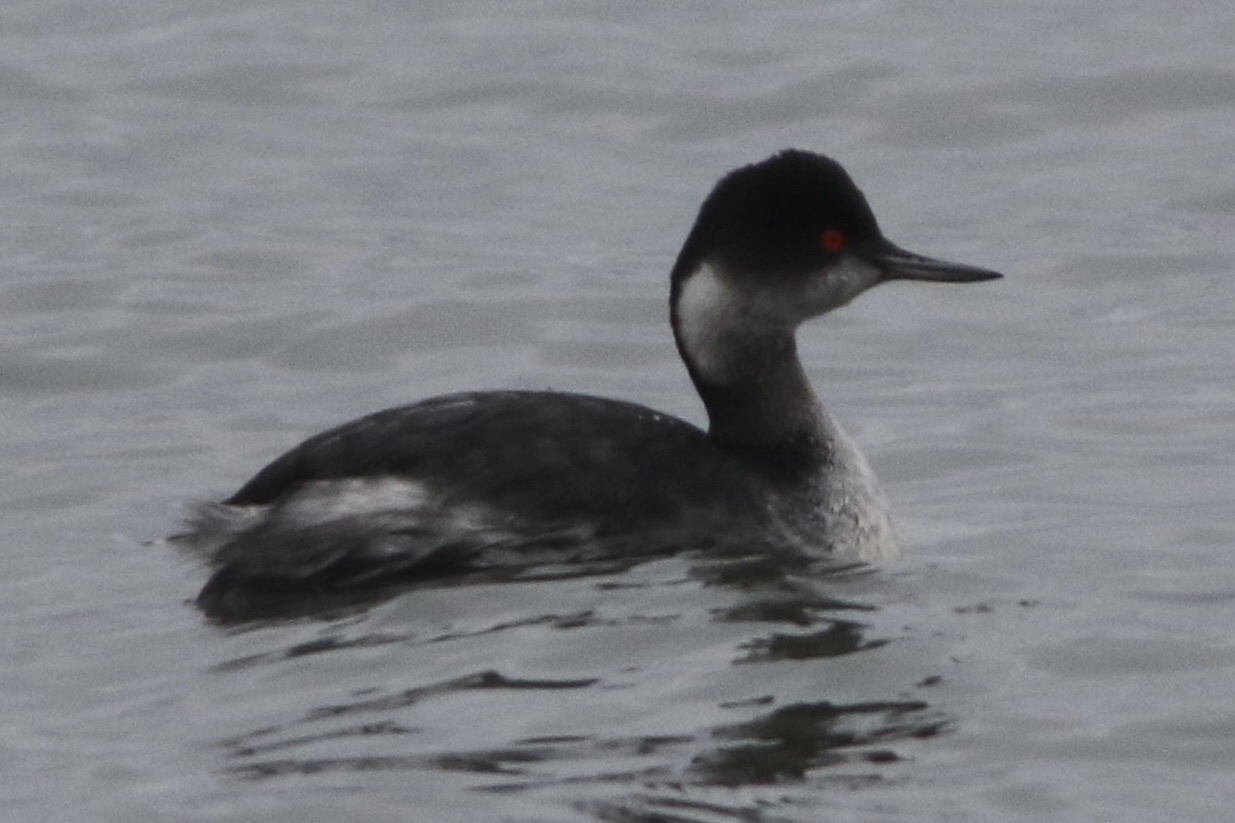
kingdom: Animalia
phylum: Chordata
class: Aves
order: Podicipediformes
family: Podicipedidae
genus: Podiceps
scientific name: Podiceps nigricollis
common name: Black-necked grebe
